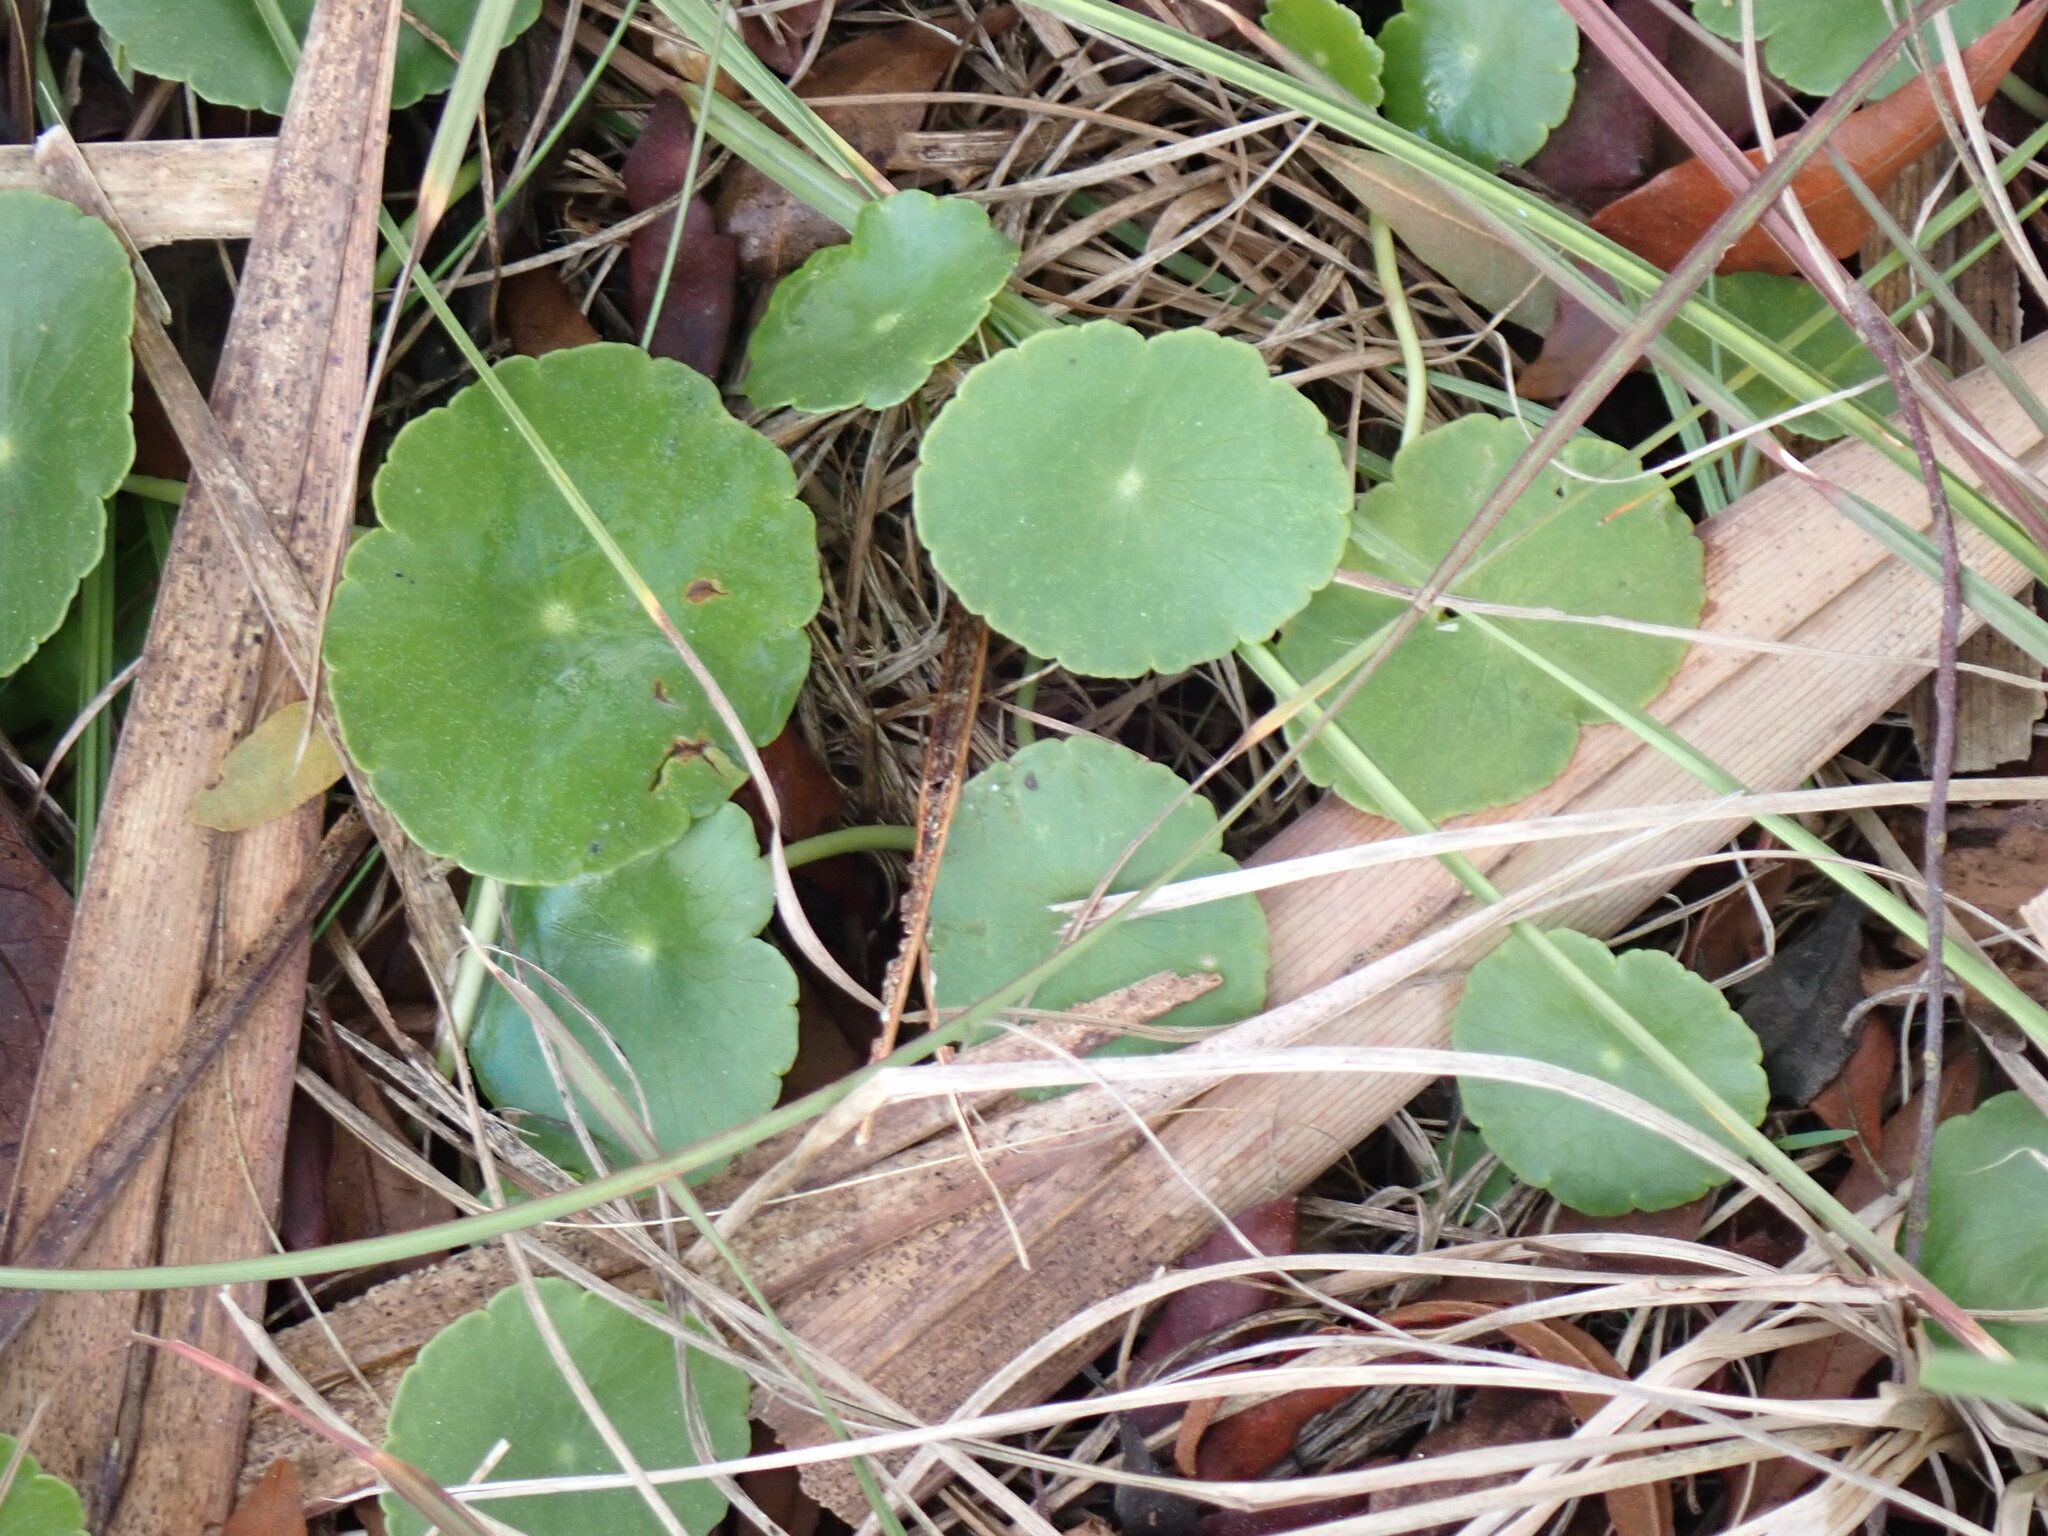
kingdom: Plantae
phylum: Tracheophyta
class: Magnoliopsida
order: Apiales
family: Araliaceae
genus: Hydrocotyle
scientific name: Hydrocotyle
